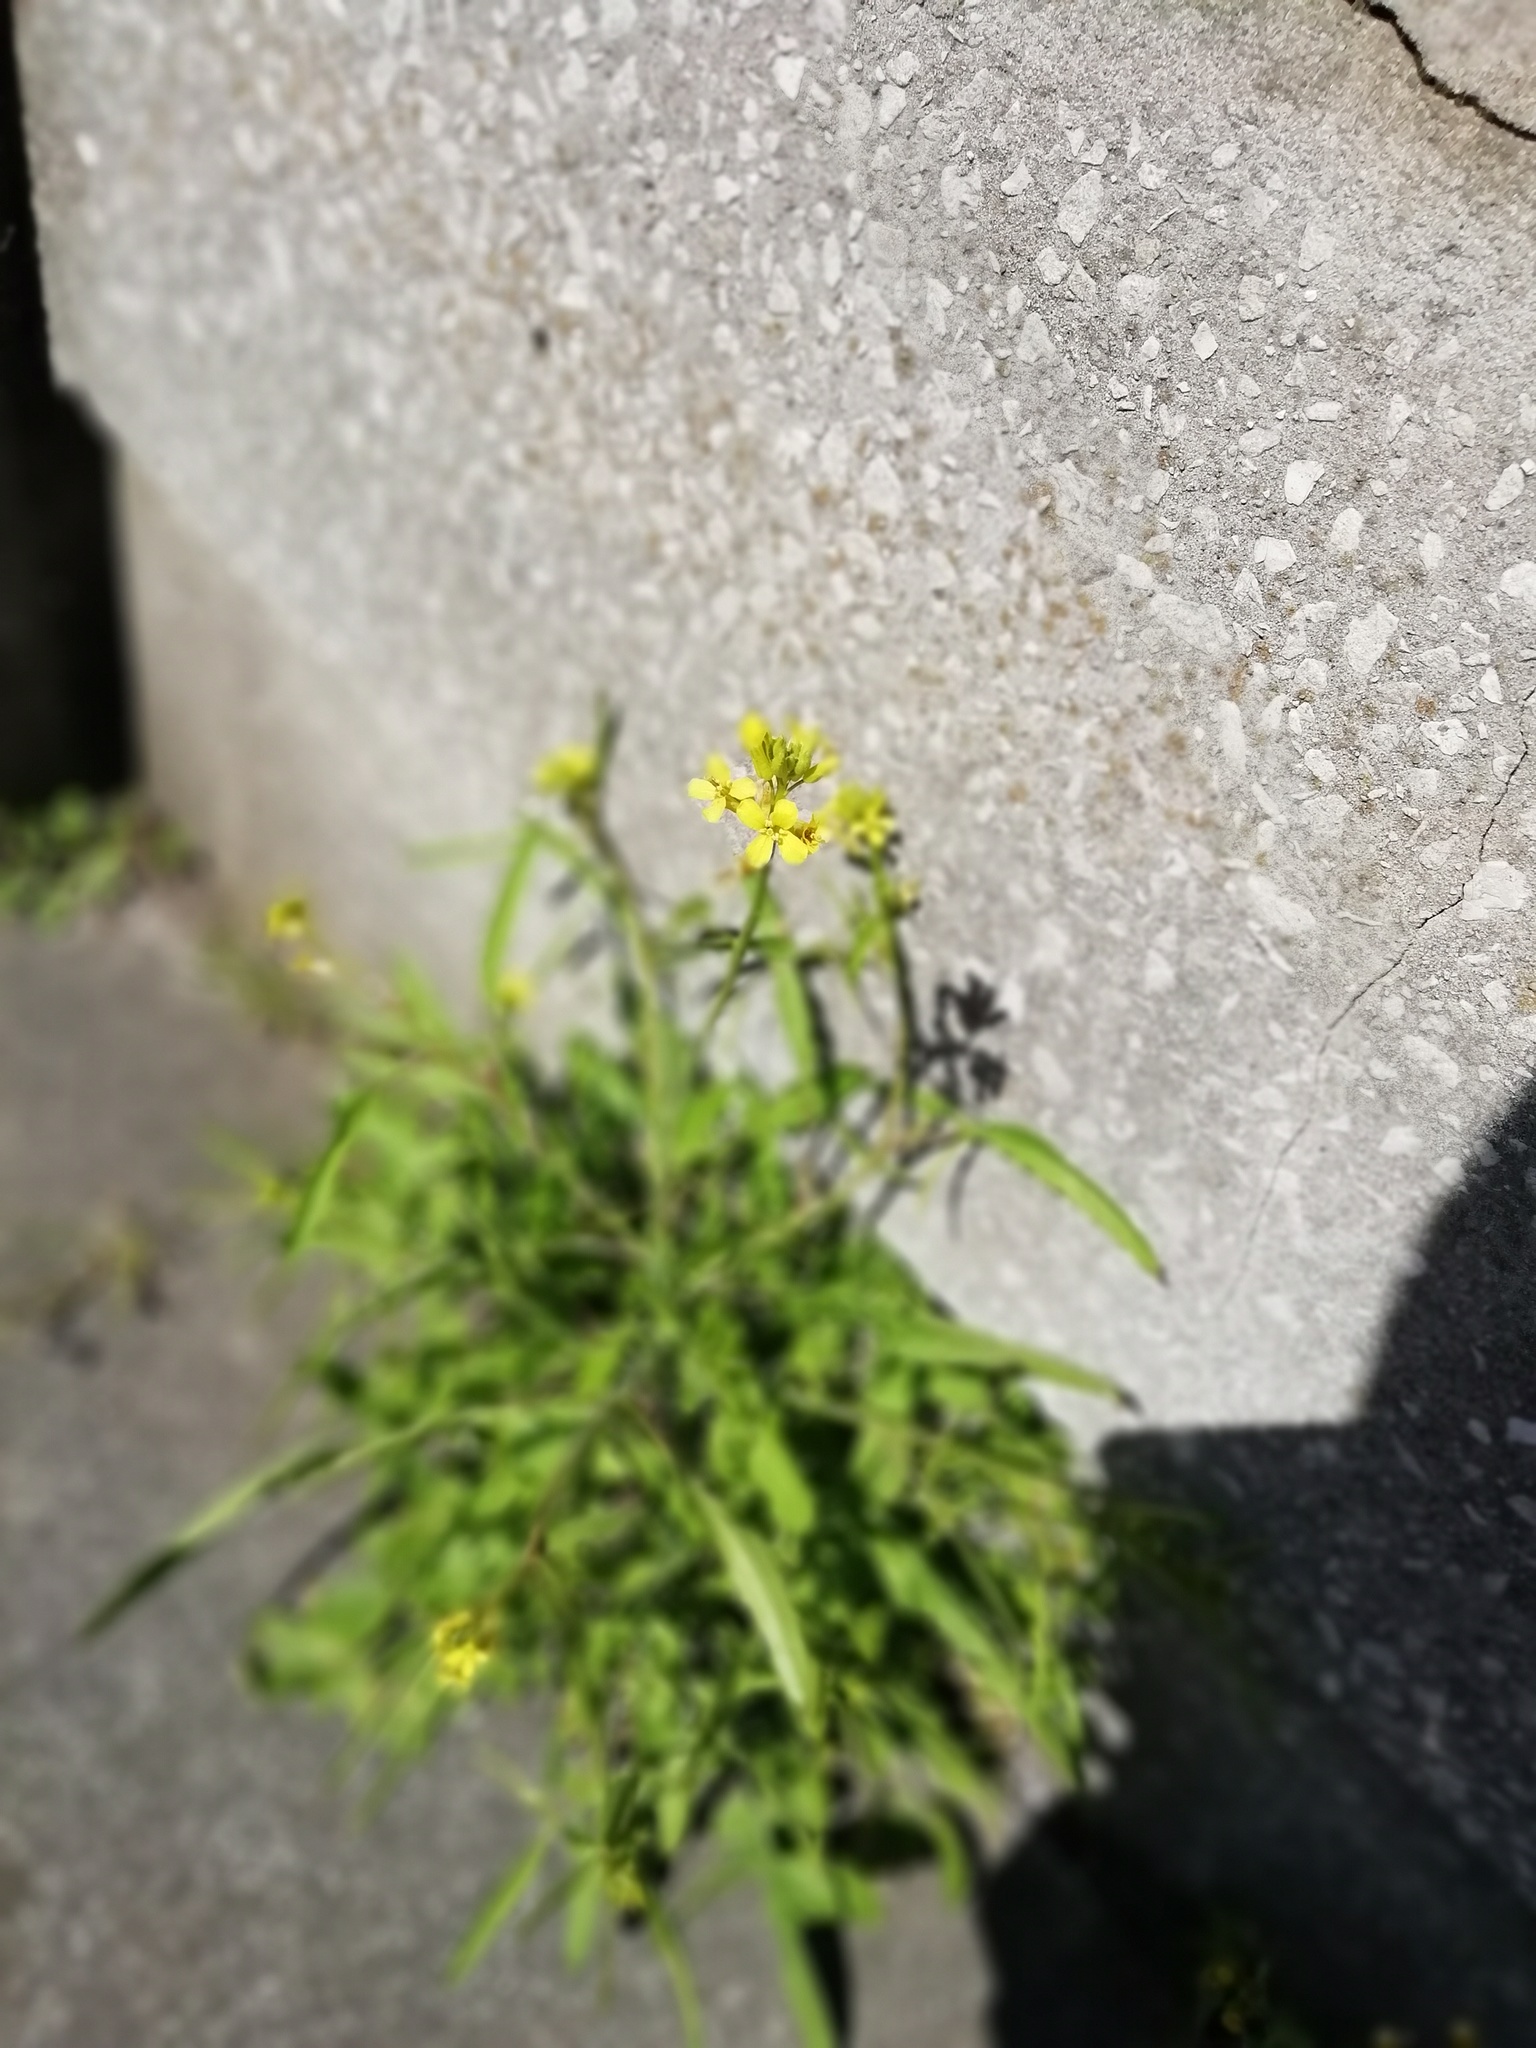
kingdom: Plantae
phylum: Tracheophyta
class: Magnoliopsida
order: Brassicales
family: Brassicaceae
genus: Sisymbrium
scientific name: Sisymbrium officinale
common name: Hedge mustard
